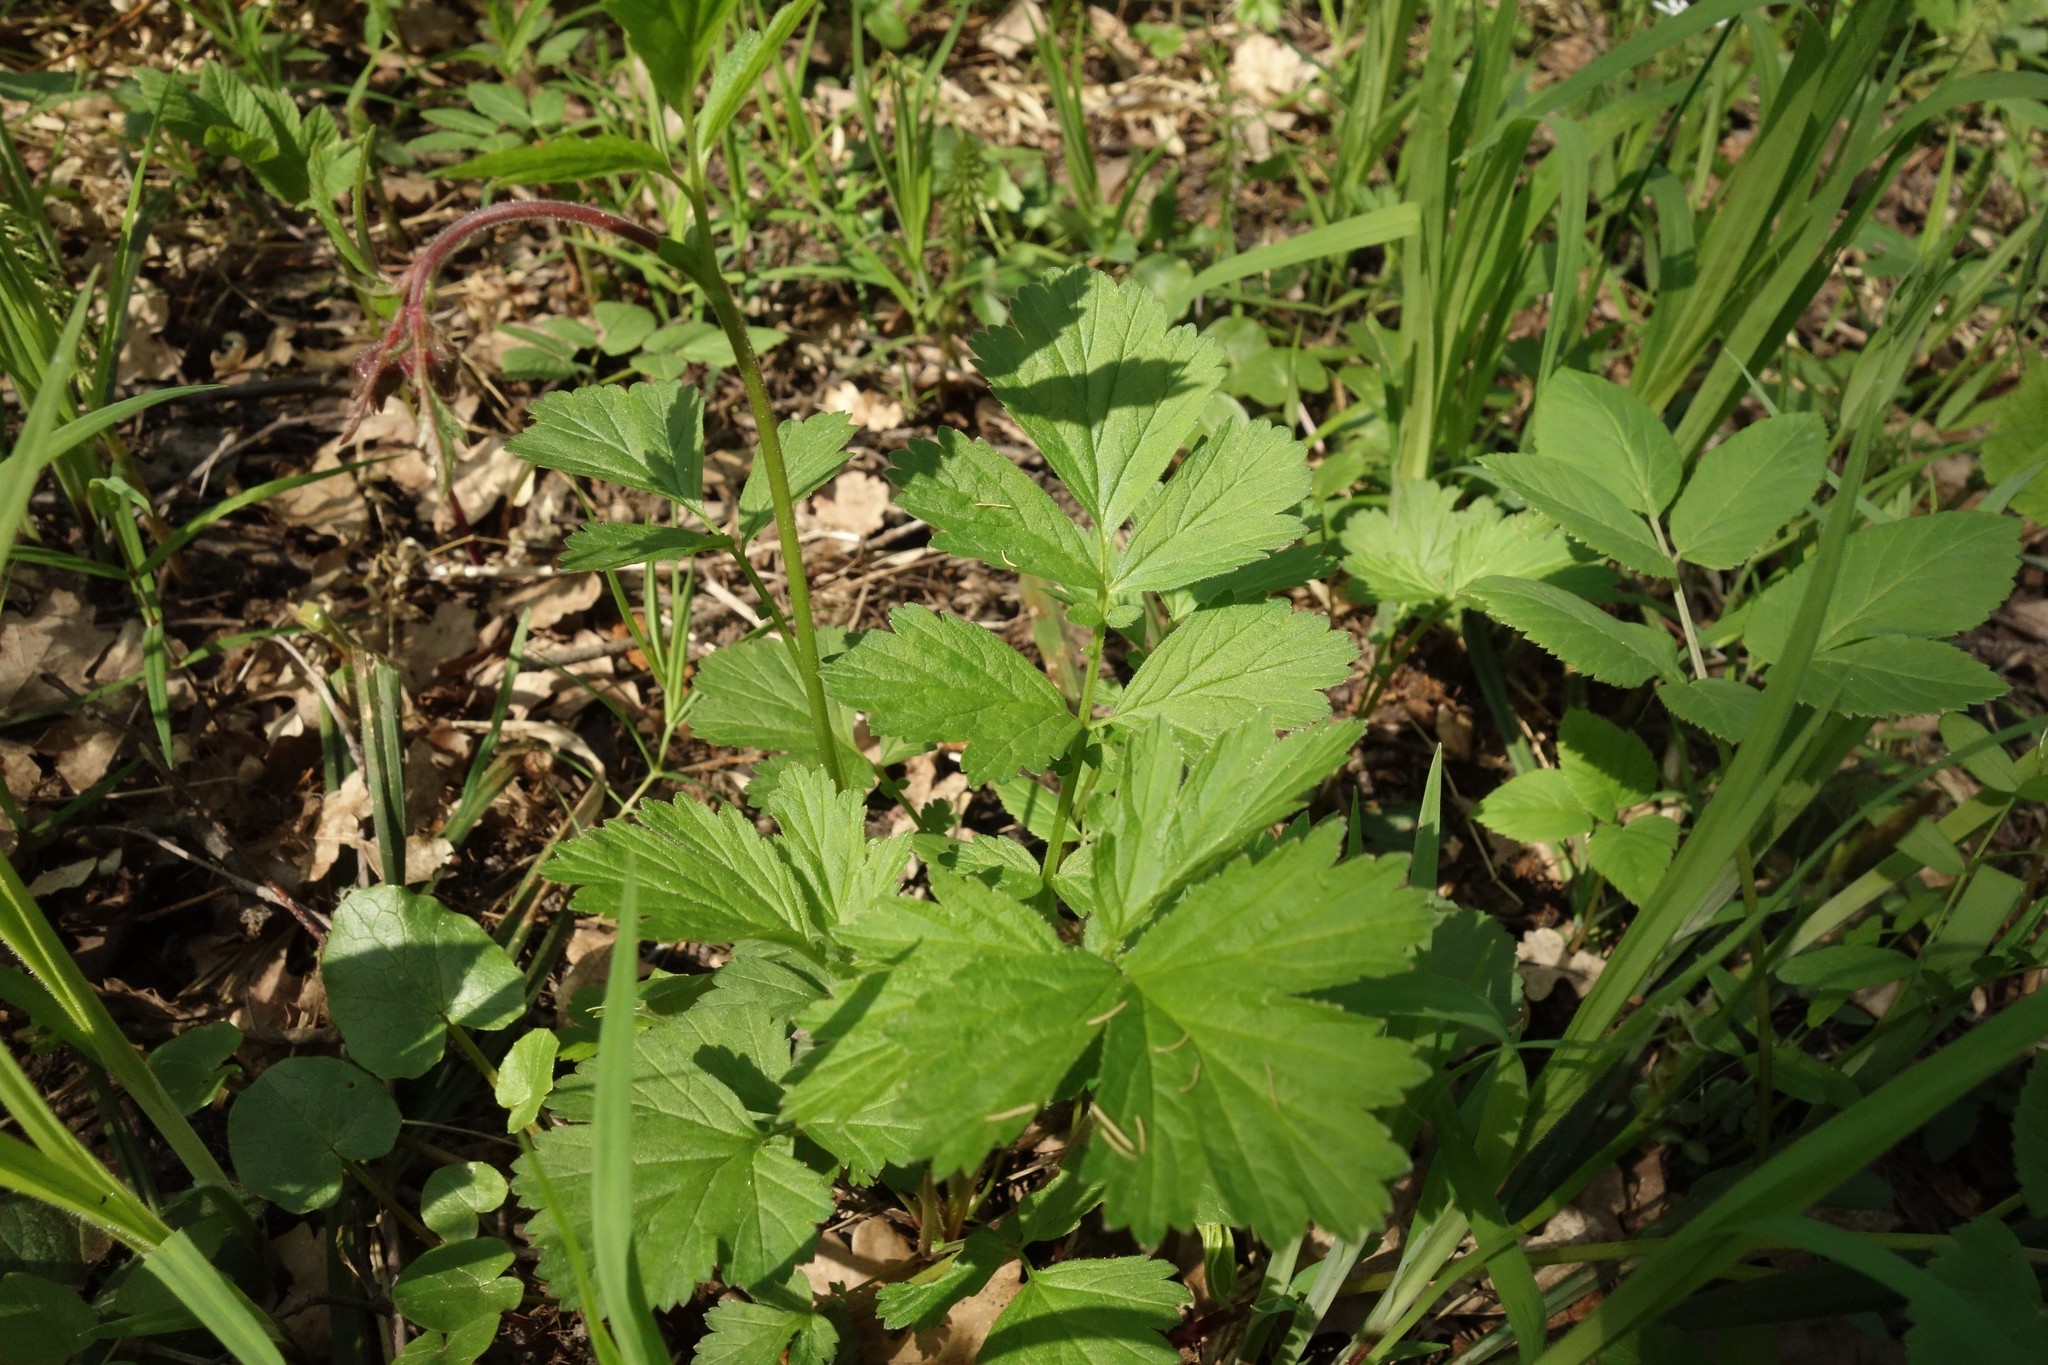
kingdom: Plantae
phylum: Tracheophyta
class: Magnoliopsida
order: Rosales
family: Rosaceae
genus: Geum
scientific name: Geum rivale
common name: Water avens
